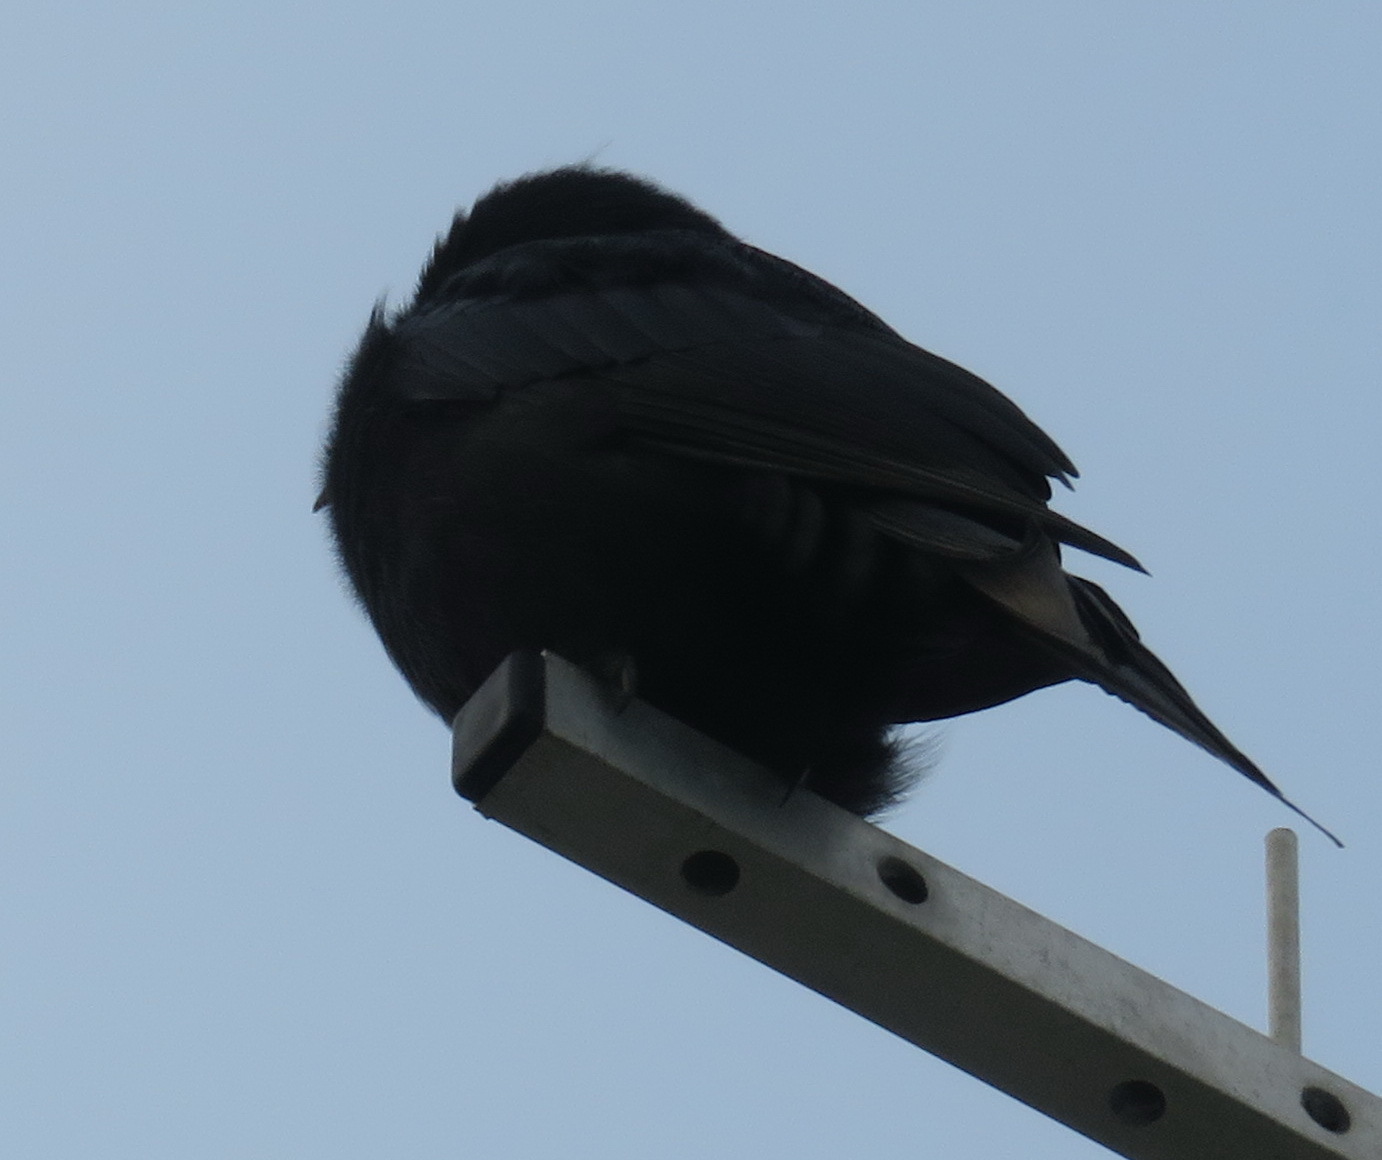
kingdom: Animalia
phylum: Chordata
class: Aves
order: Passeriformes
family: Dicruridae
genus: Dicrurus
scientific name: Dicrurus adsimilis
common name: Fork-tailed drongo
